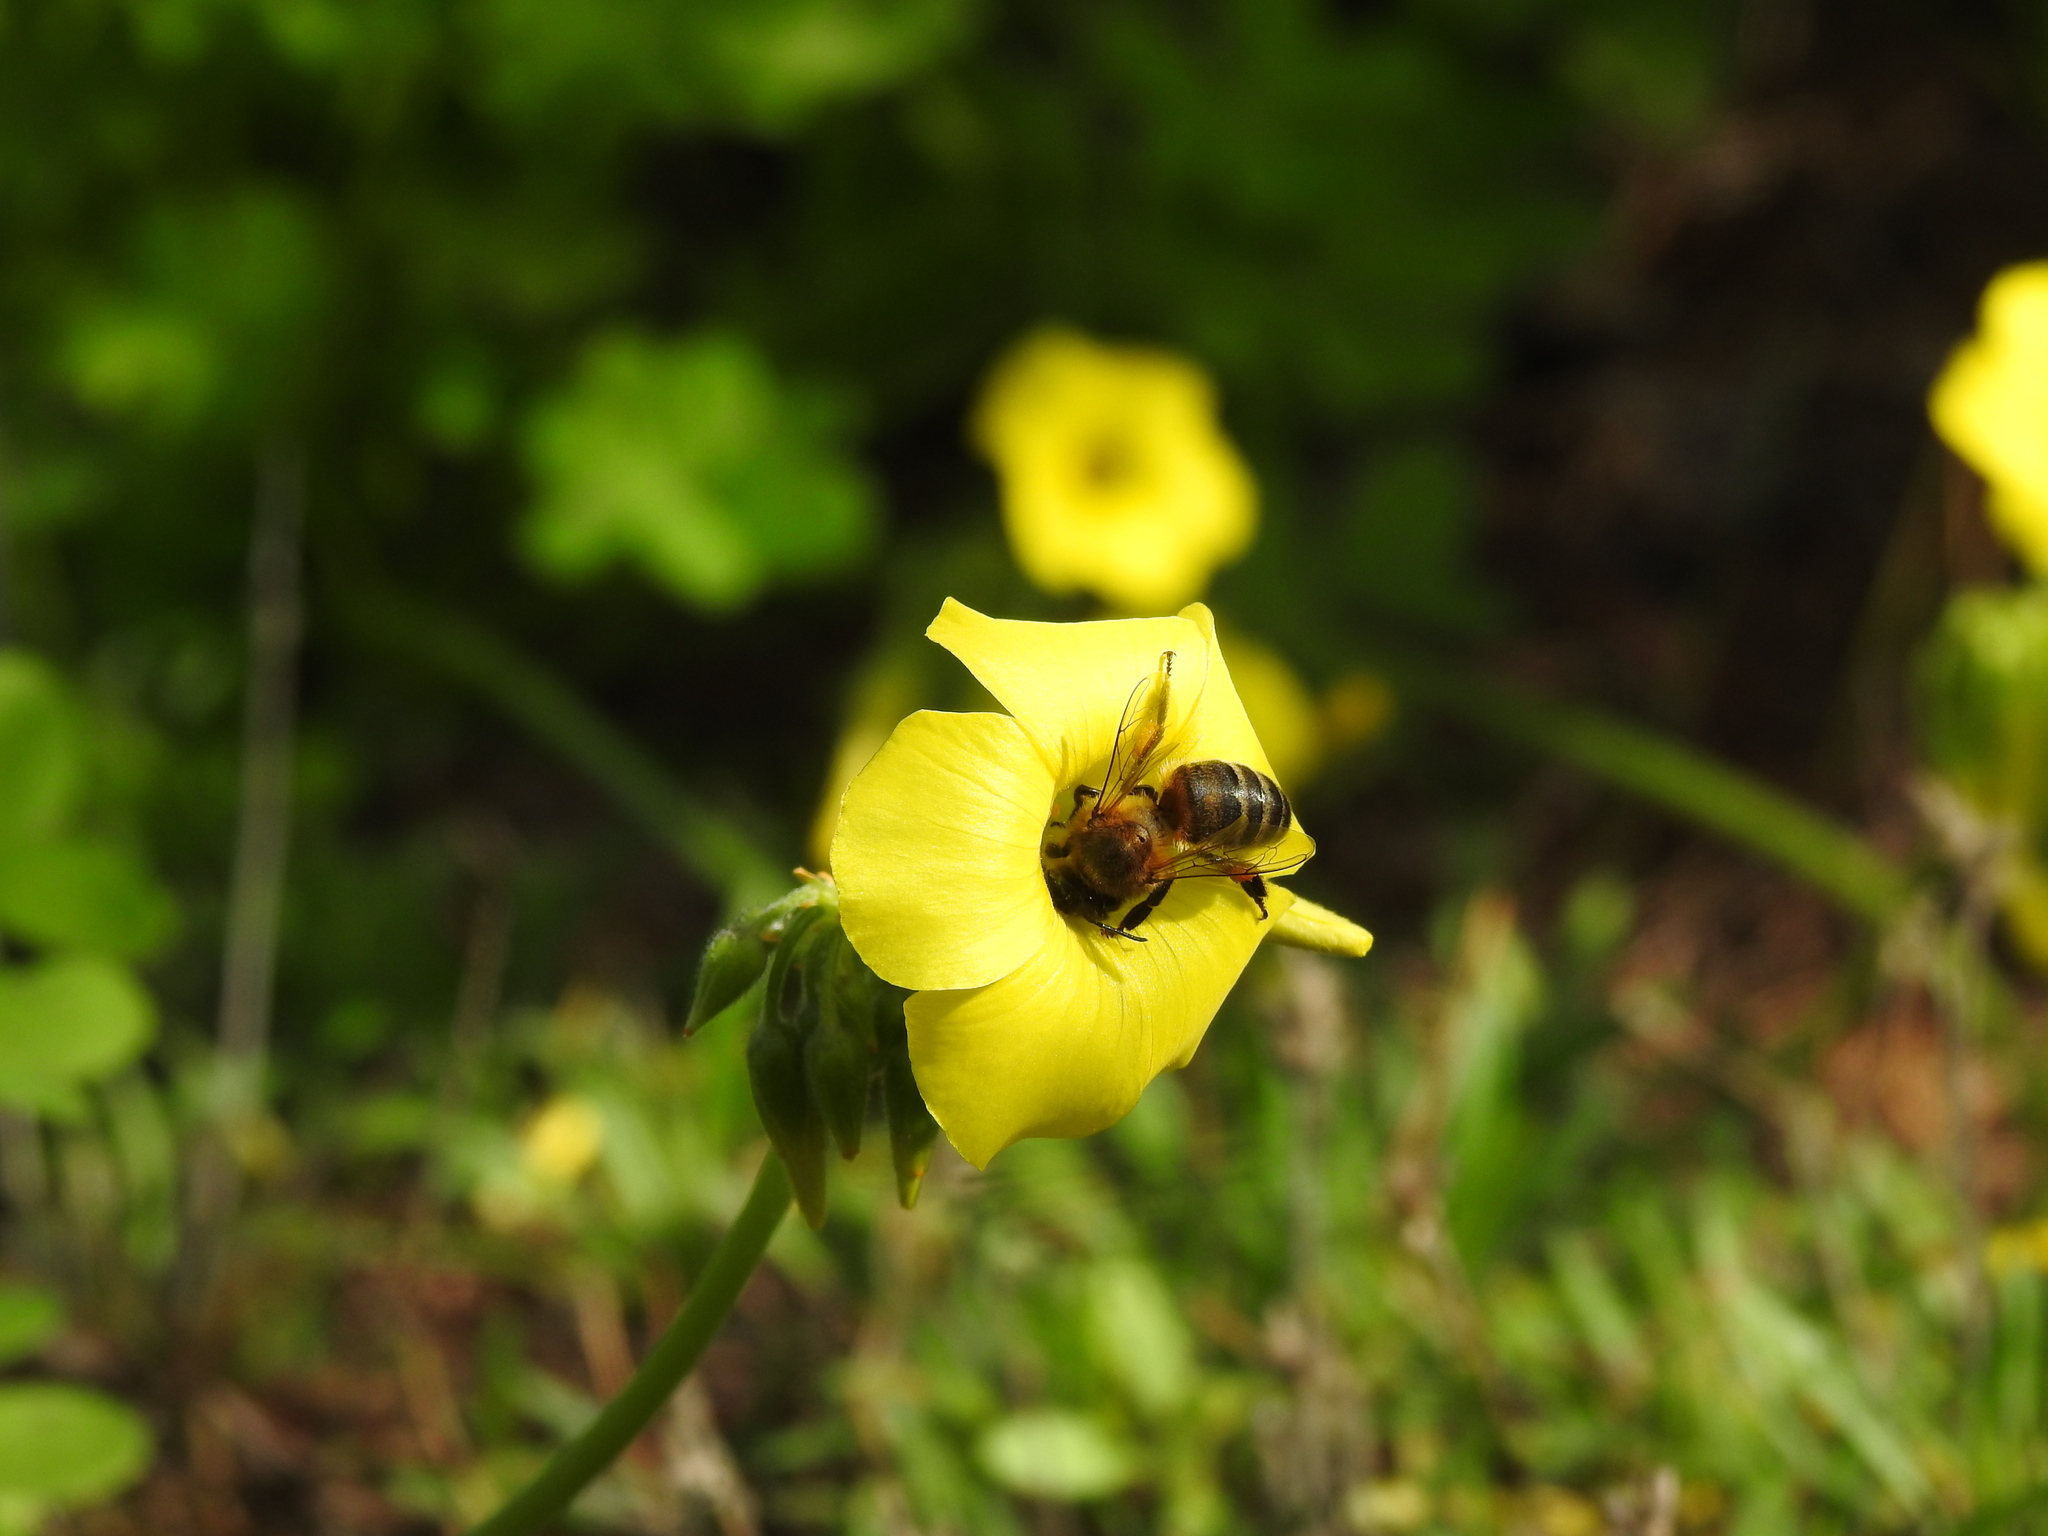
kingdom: Animalia
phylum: Arthropoda
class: Insecta
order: Hymenoptera
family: Apidae
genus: Apis
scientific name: Apis mellifera
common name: Honey bee
